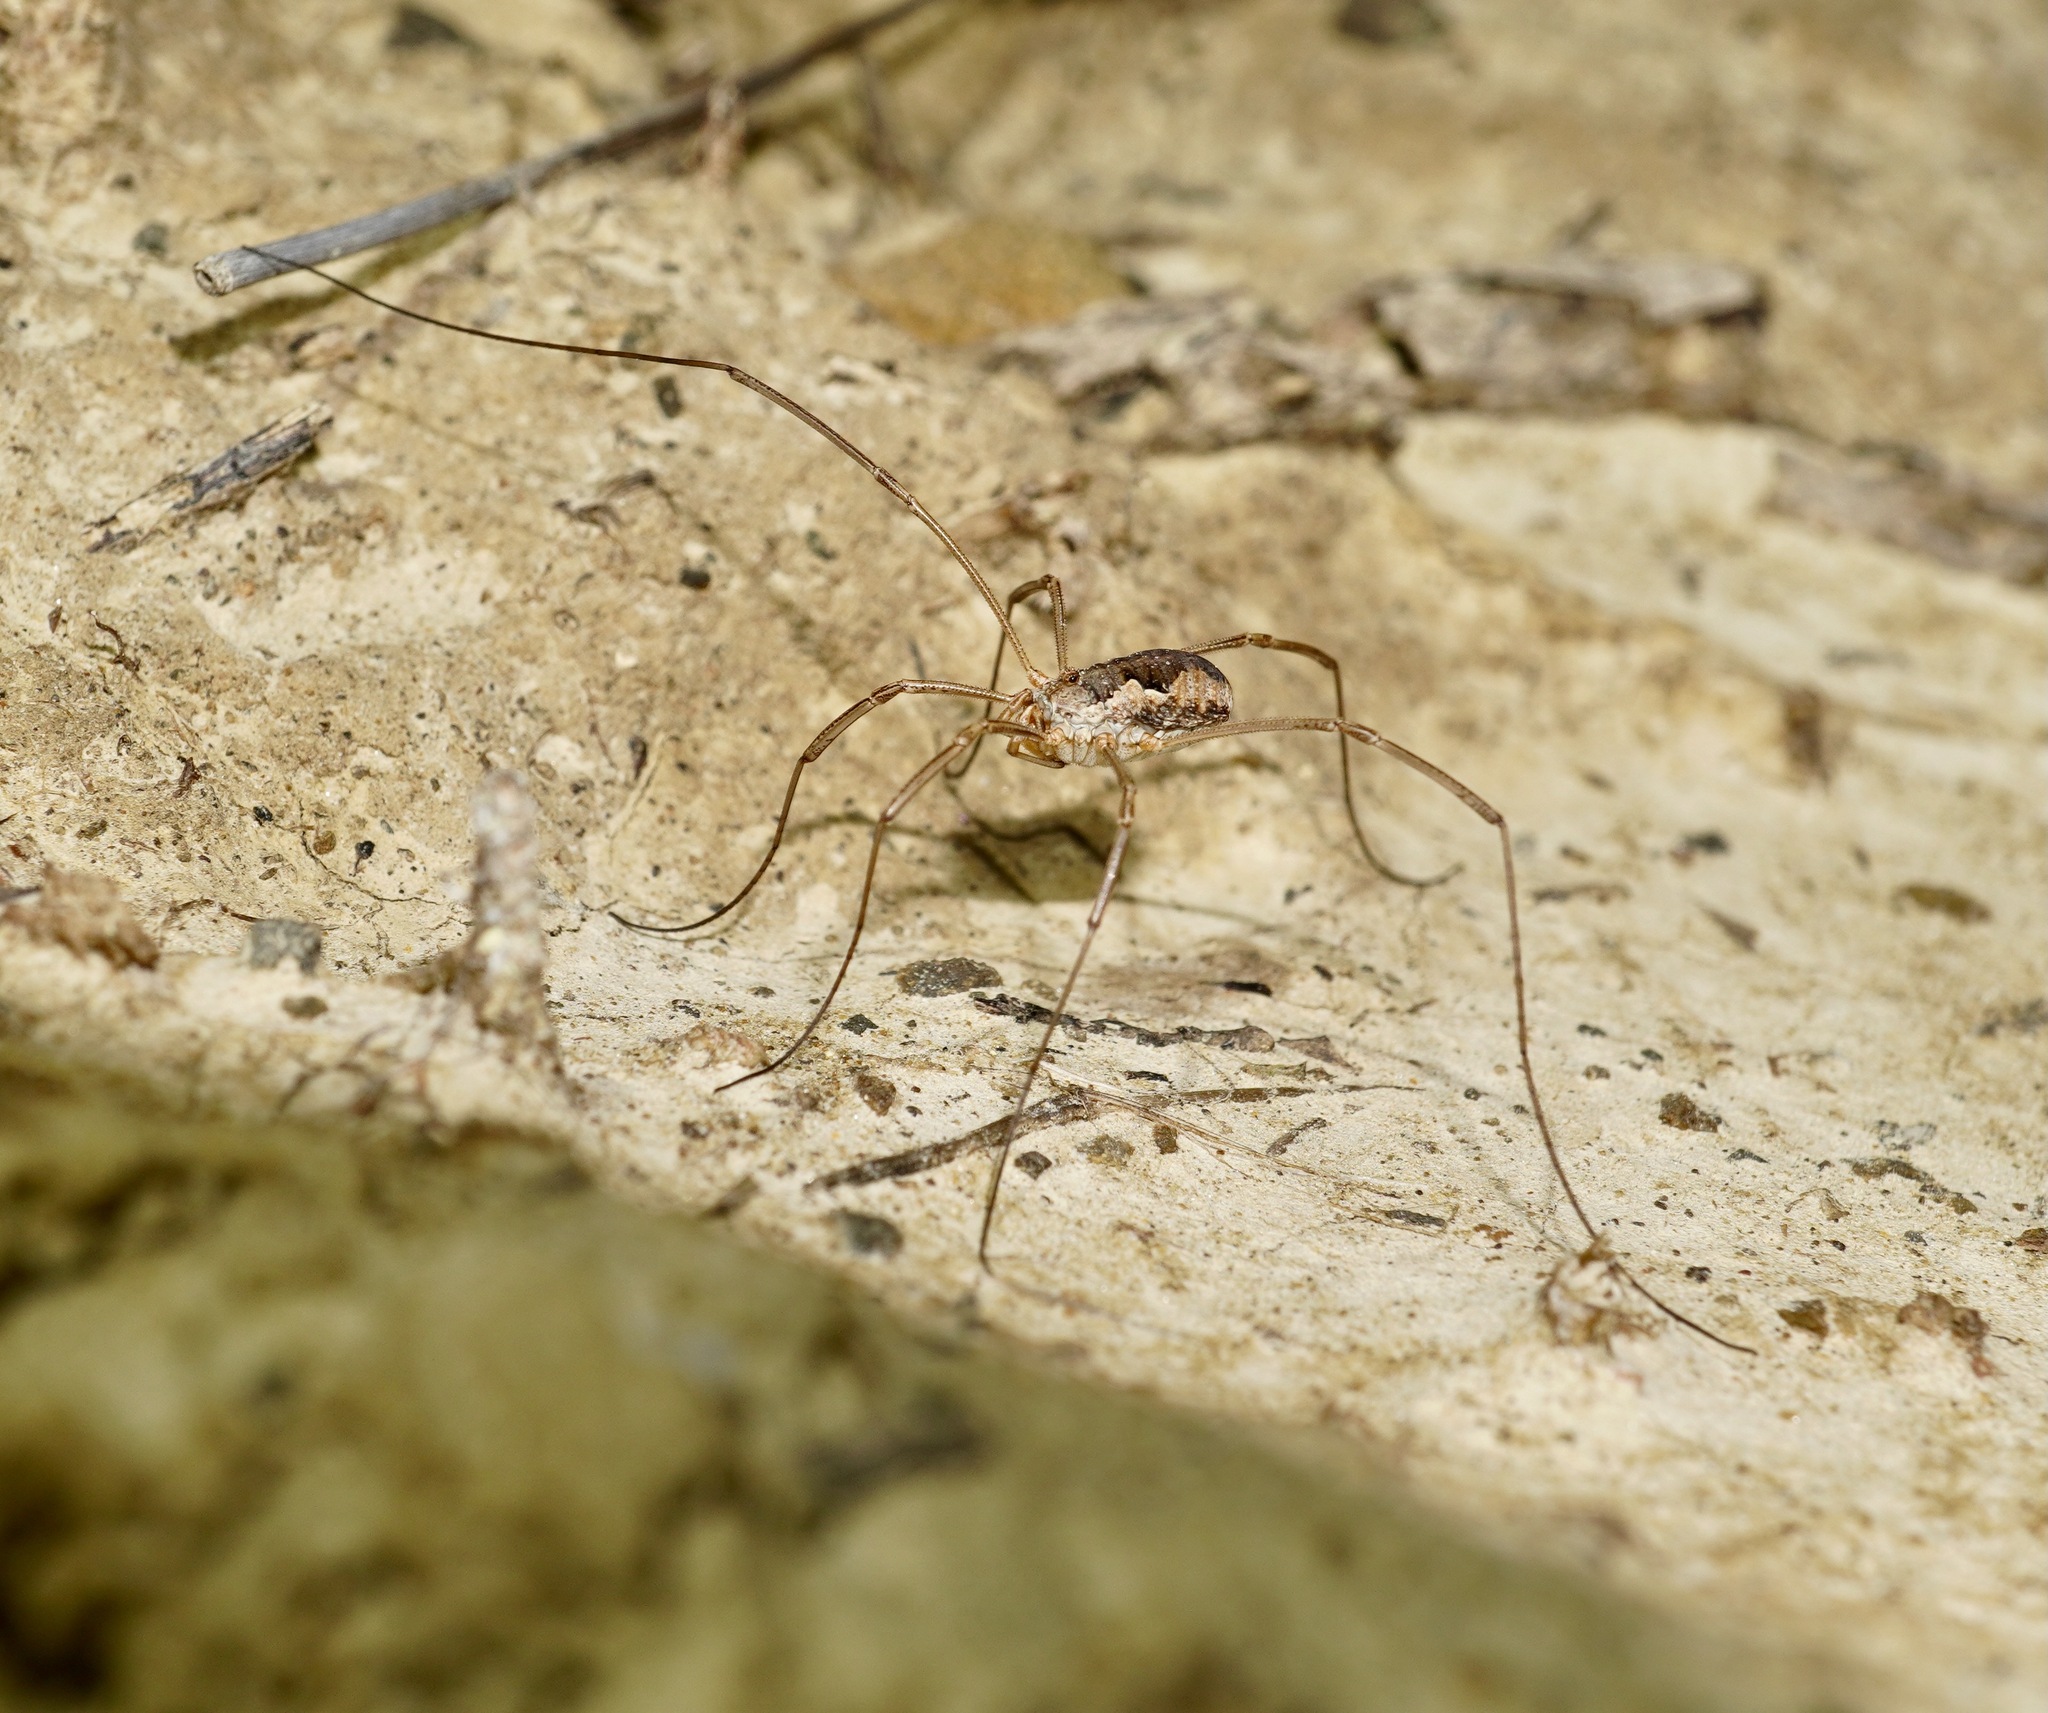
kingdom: Animalia
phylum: Arthropoda
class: Arachnida
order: Opiliones
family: Phalangiidae
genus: Phalangium
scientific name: Phalangium opilio
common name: Daddy longleg
